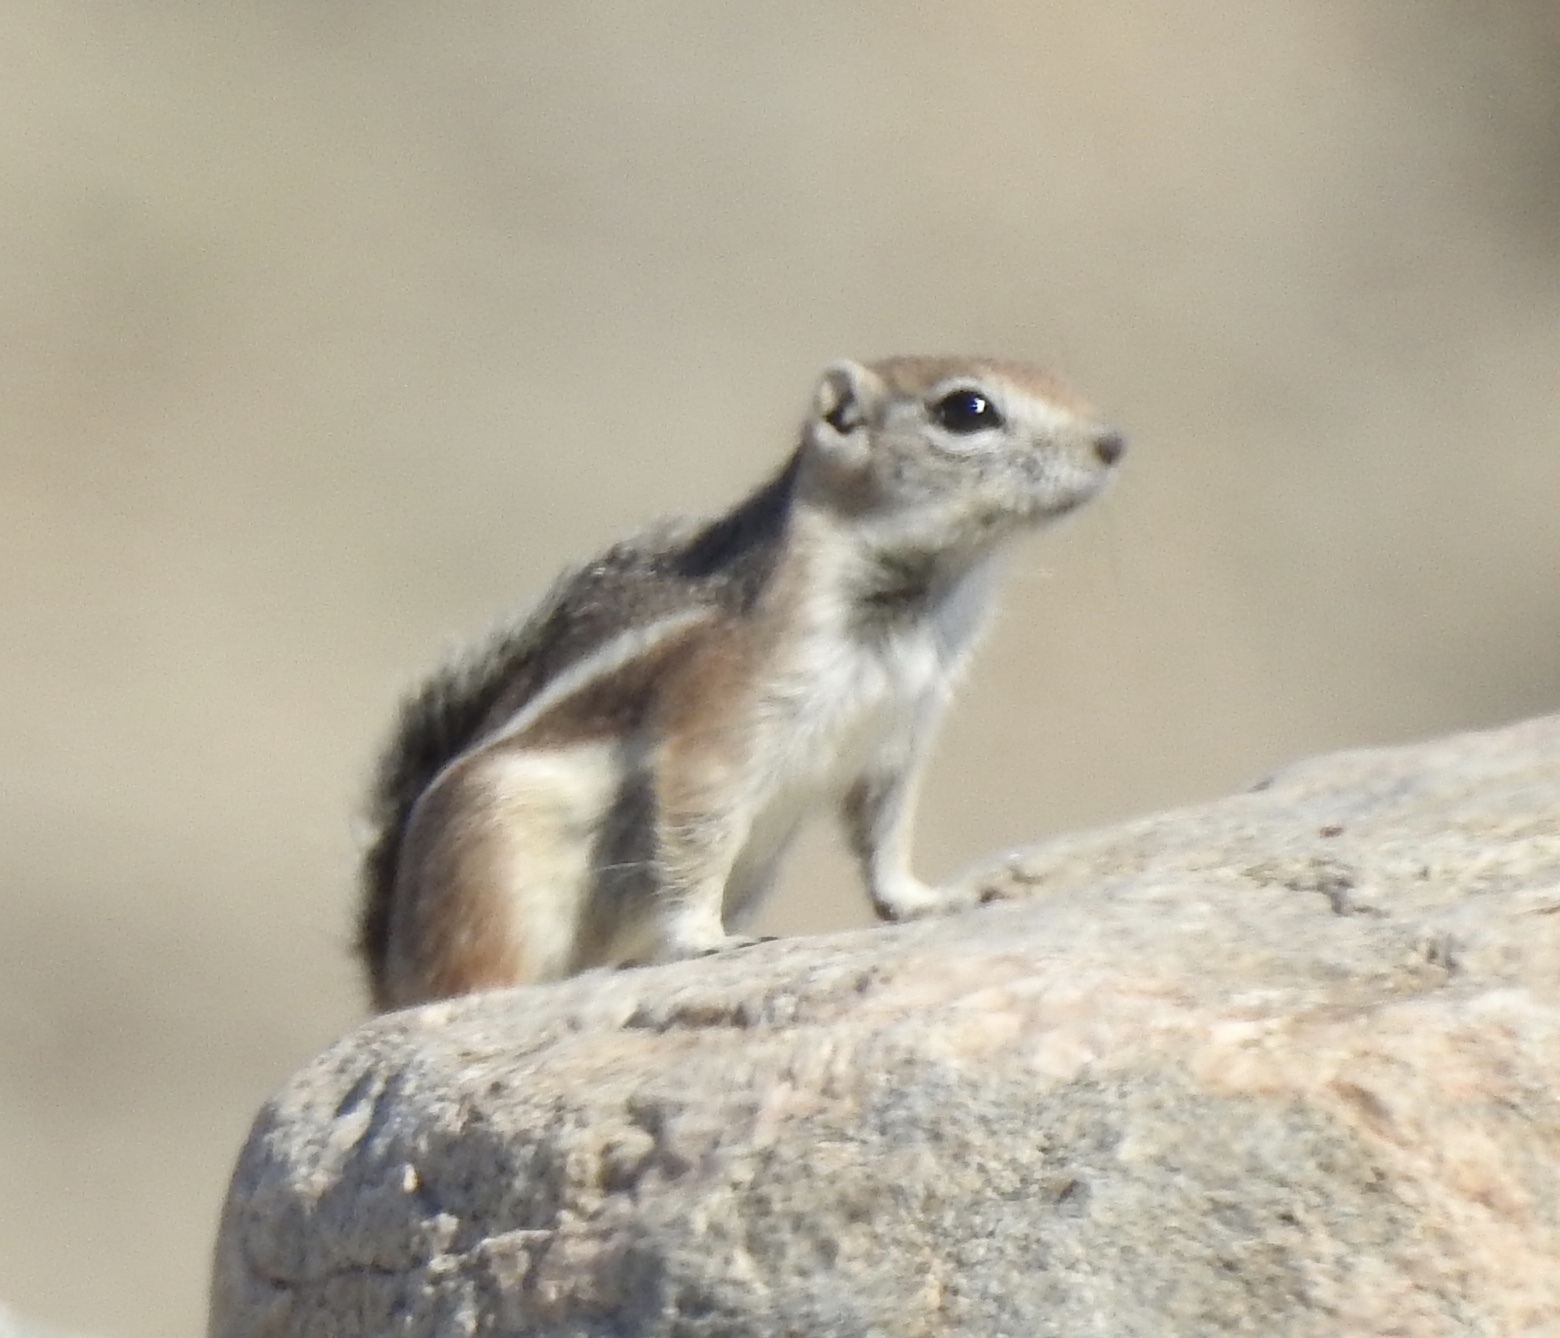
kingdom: Animalia
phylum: Chordata
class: Mammalia
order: Rodentia
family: Sciuridae
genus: Ammospermophilus
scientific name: Ammospermophilus leucurus
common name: White-tailed antelope squirrel
